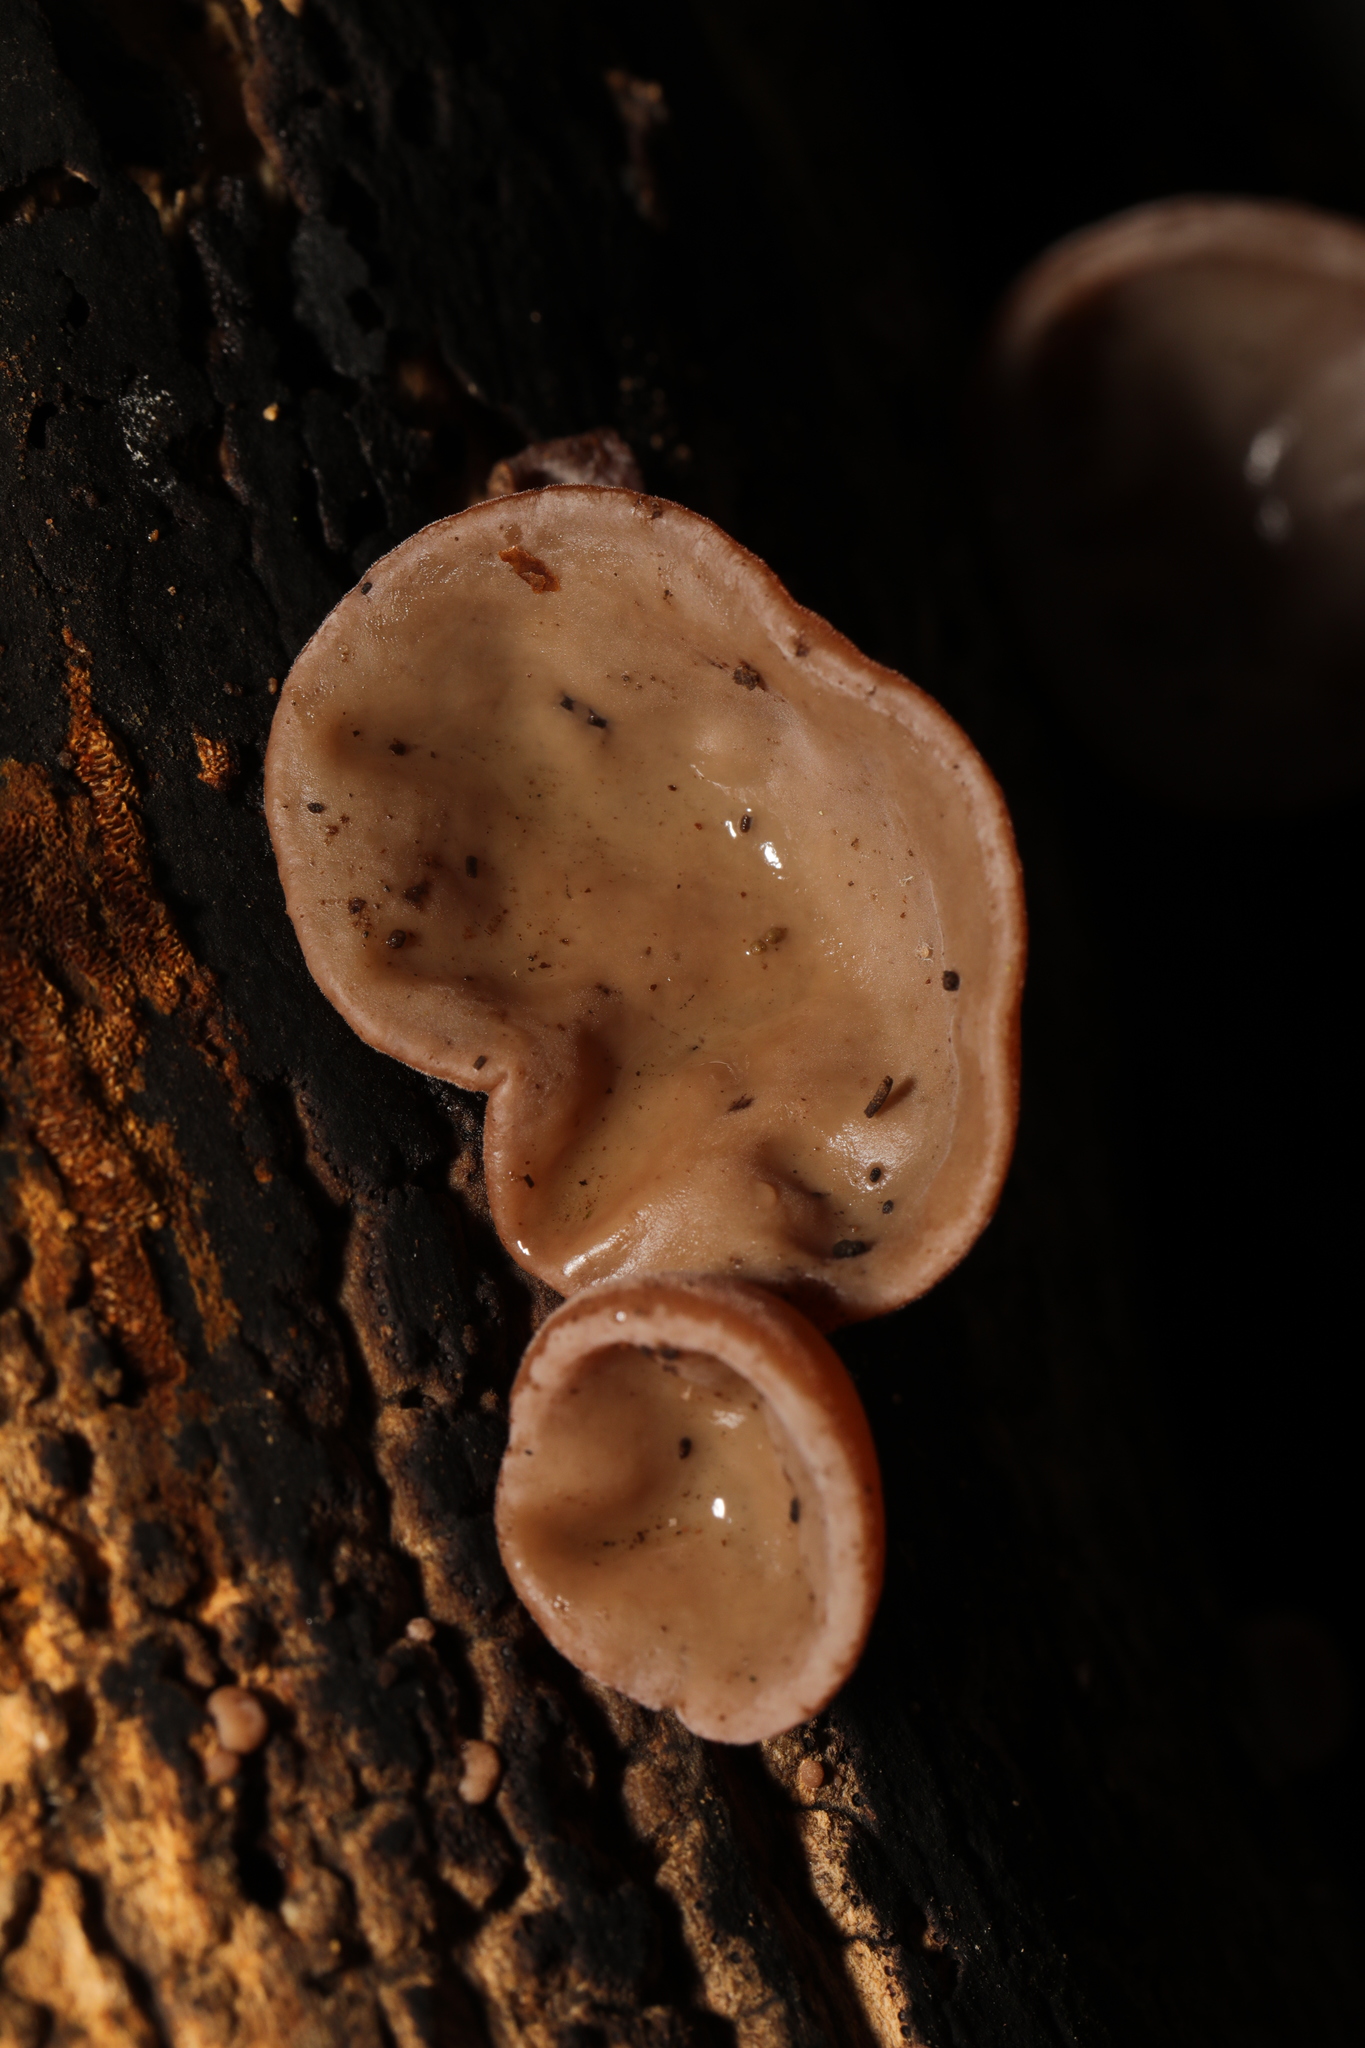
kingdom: Fungi
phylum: Basidiomycota
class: Agaricomycetes
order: Auriculariales
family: Auriculariaceae
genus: Auricularia
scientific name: Auricularia auricula-judae
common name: Jelly ear
